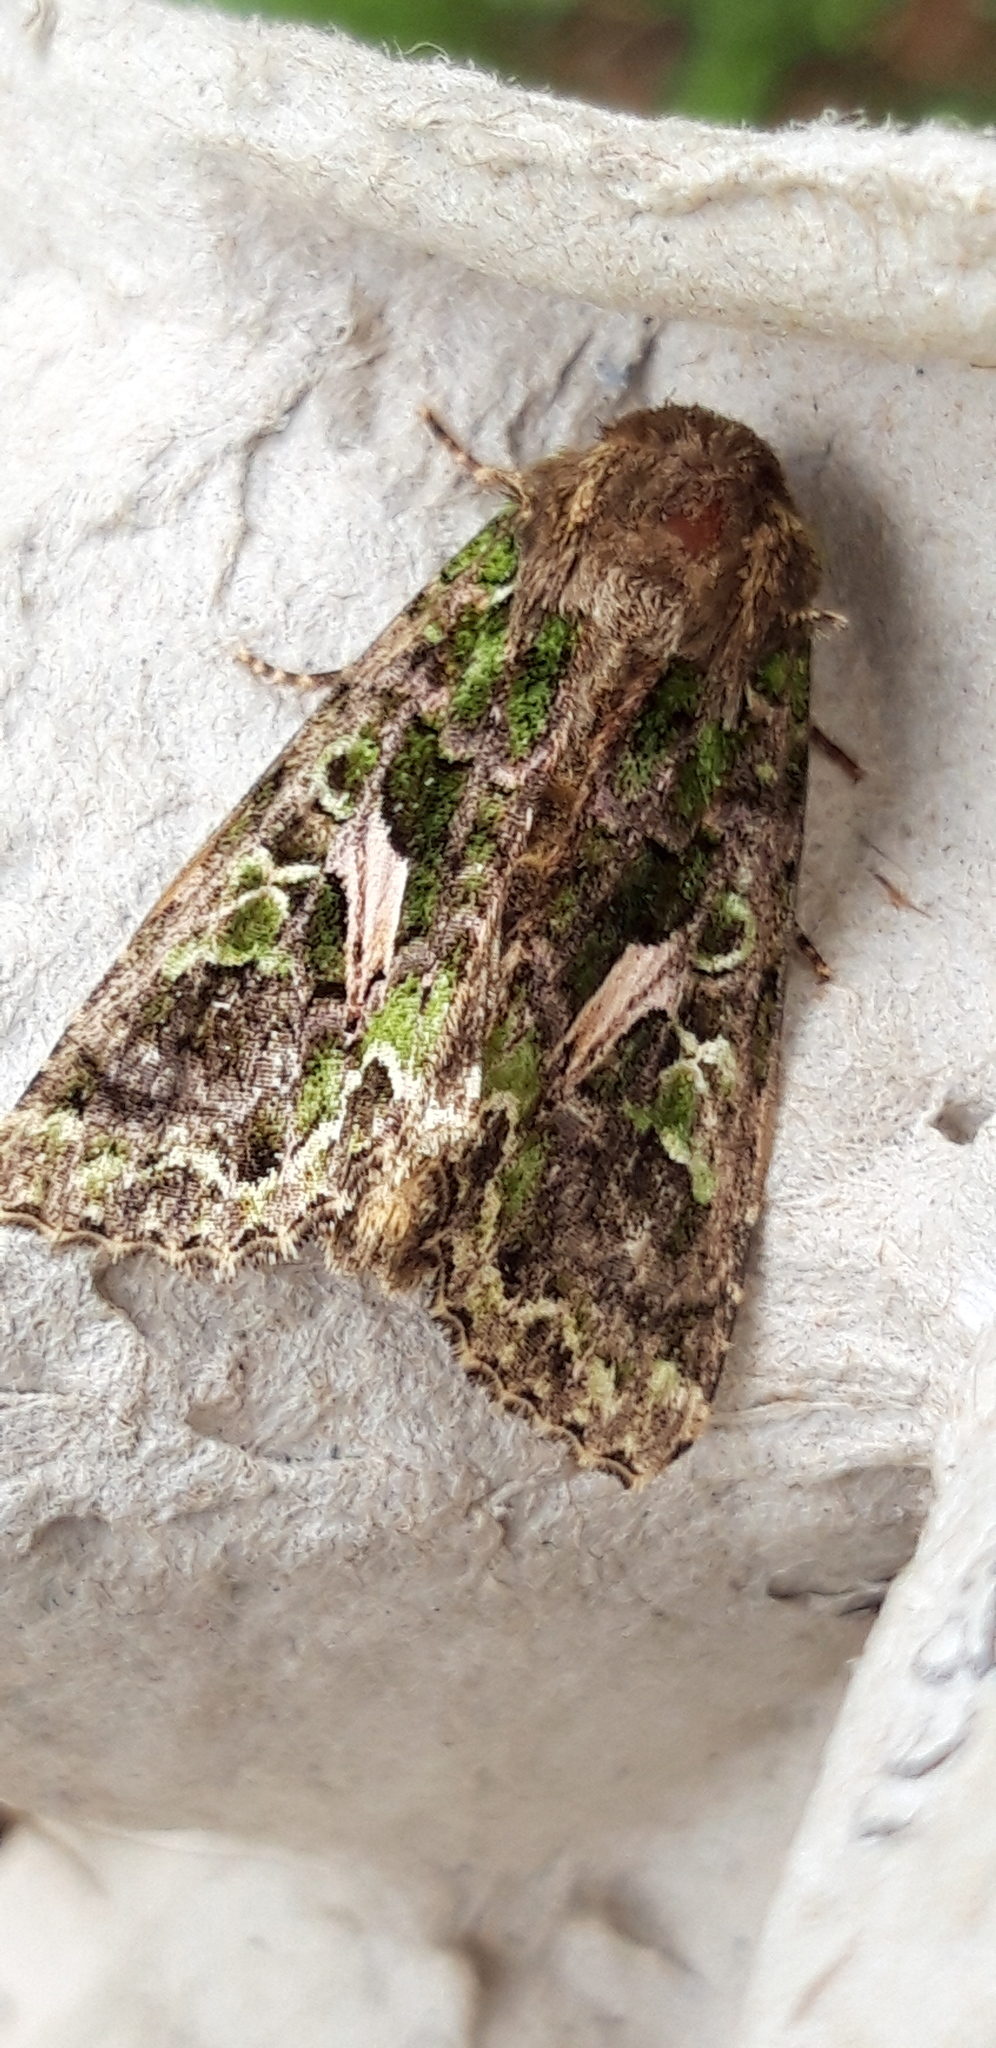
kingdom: Animalia
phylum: Arthropoda
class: Insecta
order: Lepidoptera
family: Noctuidae
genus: Trachea
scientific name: Trachea atriplicis
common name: Orache moth
